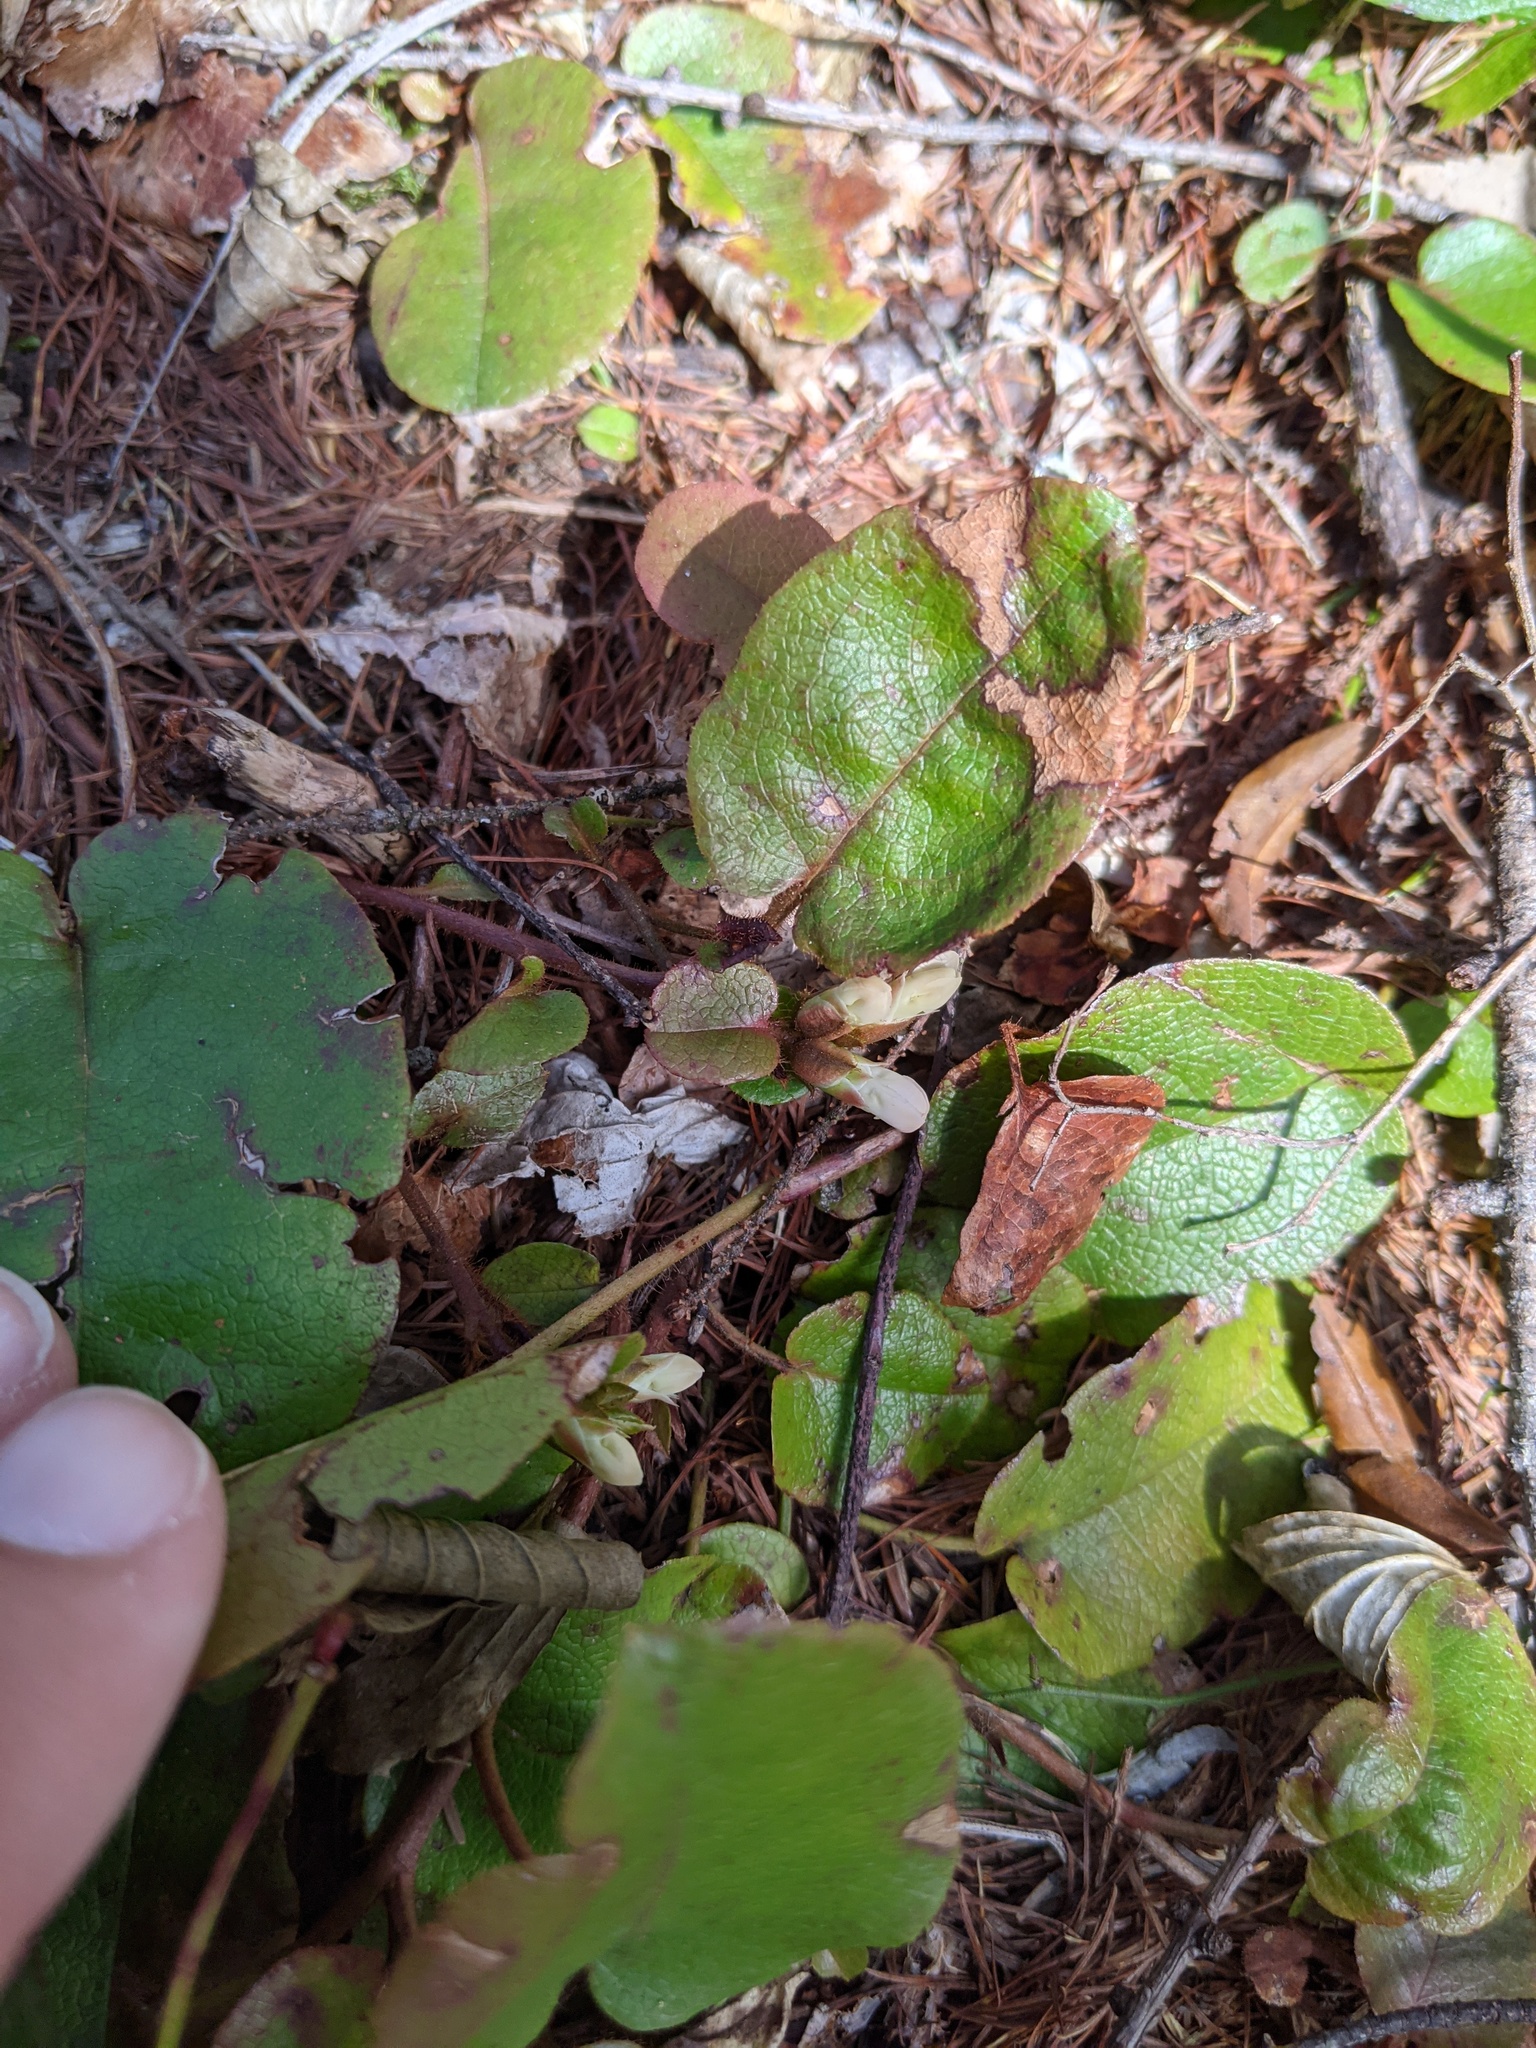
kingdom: Plantae
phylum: Tracheophyta
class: Magnoliopsida
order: Ericales
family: Ericaceae
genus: Epigaea
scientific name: Epigaea repens
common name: Gravelroot
